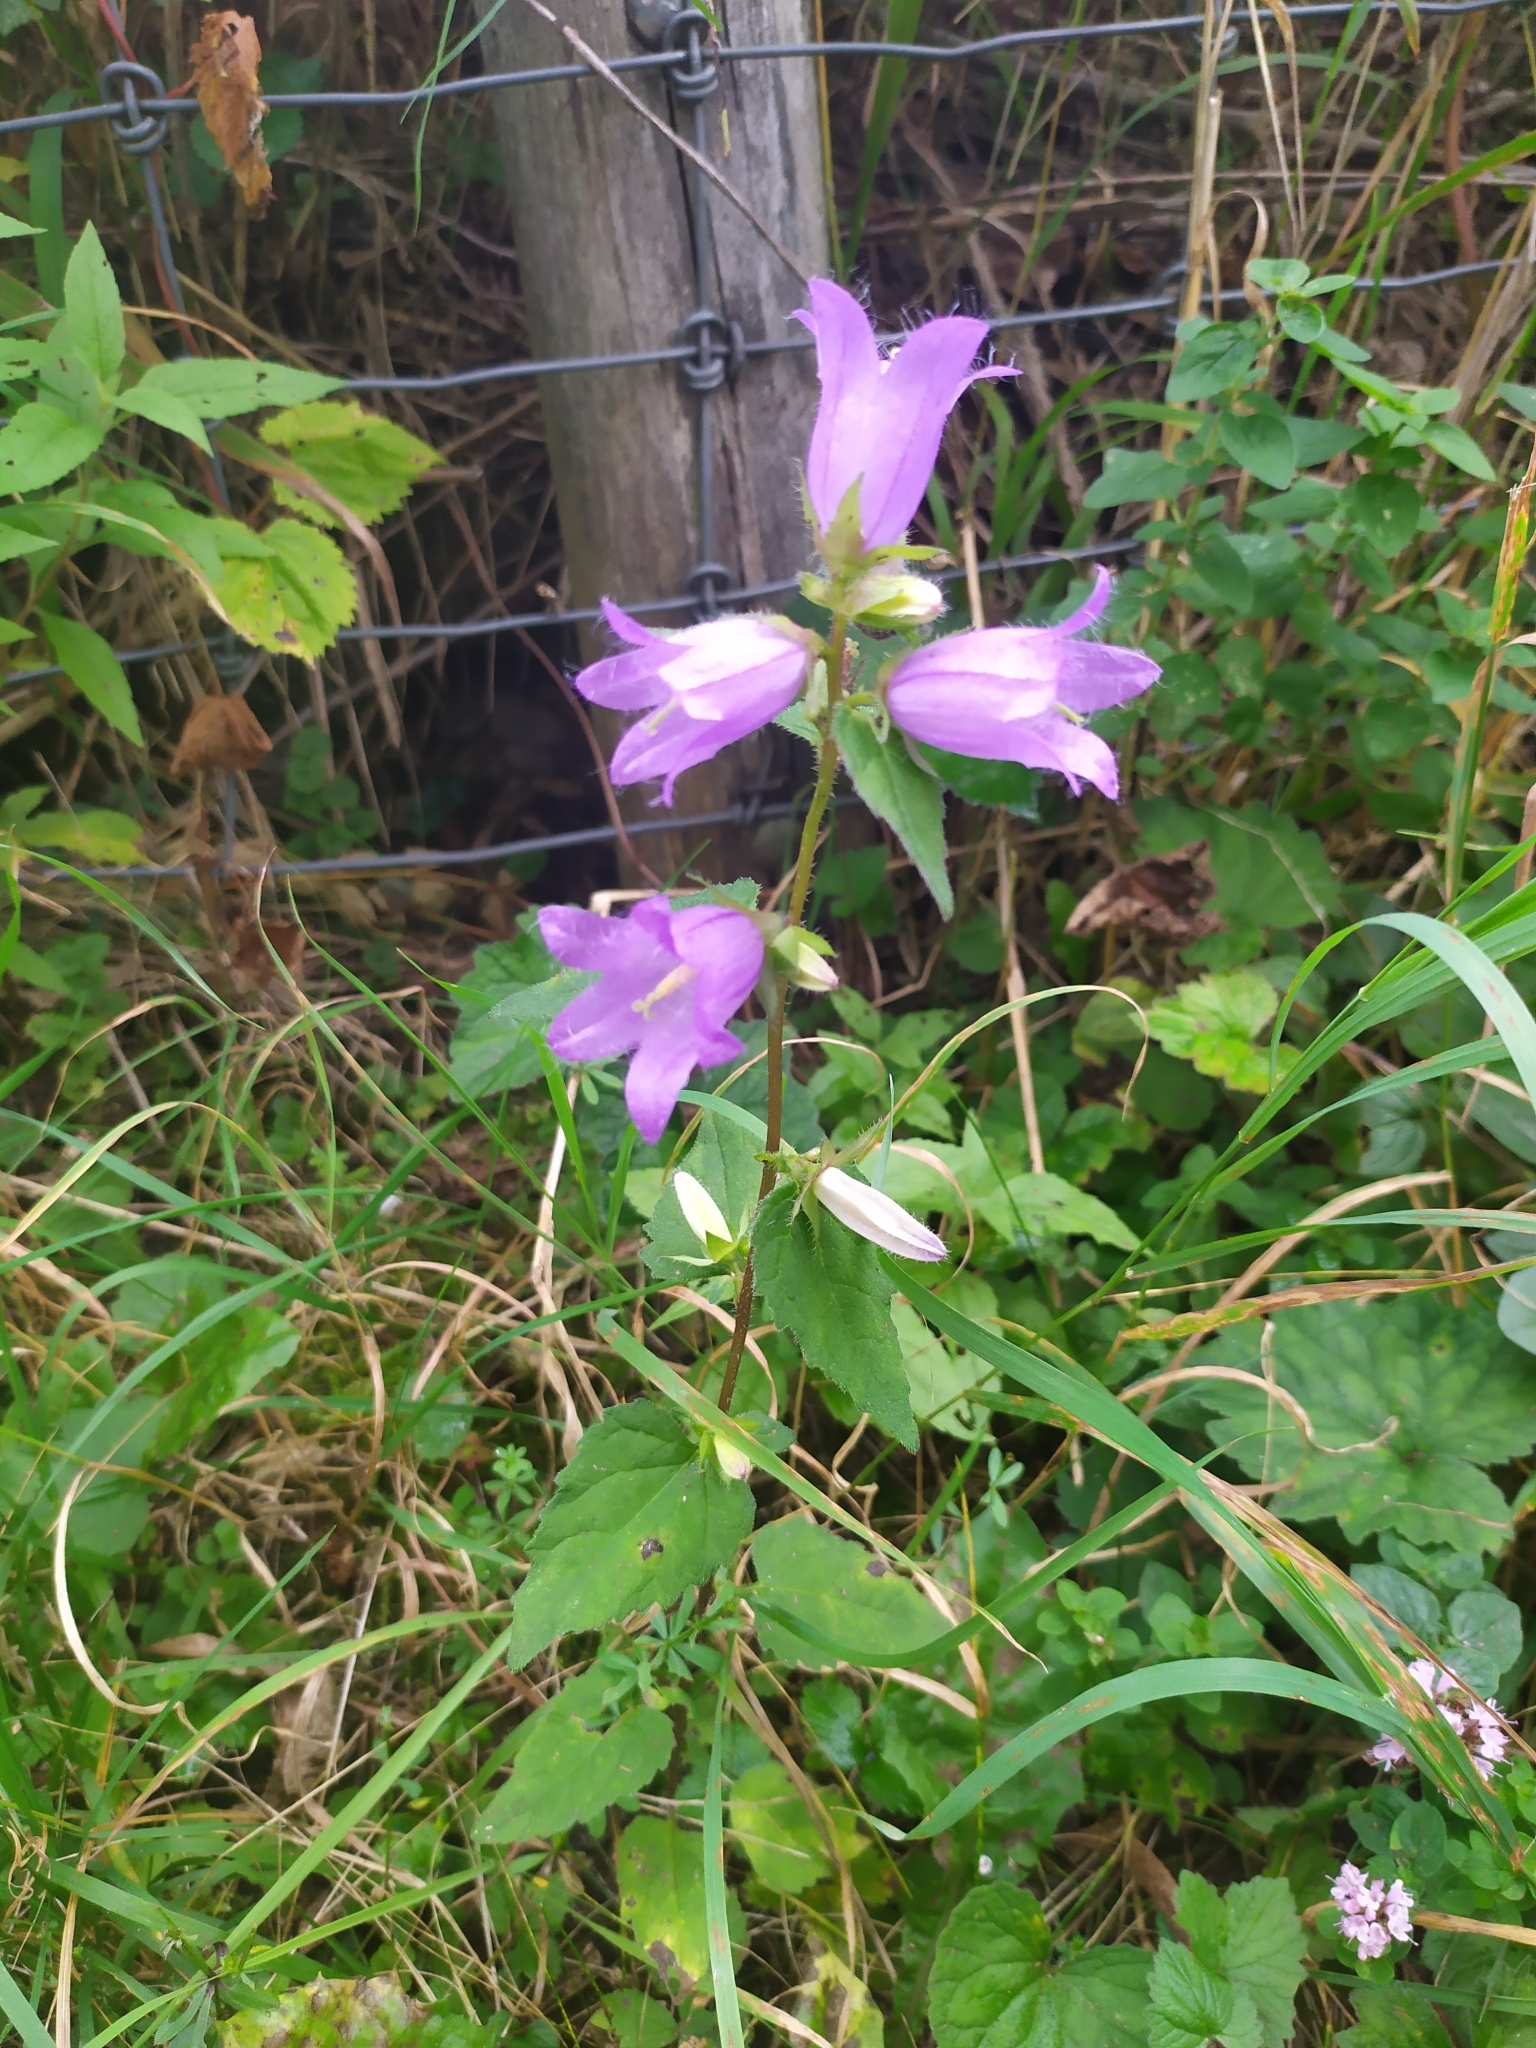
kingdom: Plantae
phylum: Tracheophyta
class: Magnoliopsida
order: Asterales
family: Campanulaceae
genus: Campanula
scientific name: Campanula trachelium
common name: Nettle-leaved bellflower
